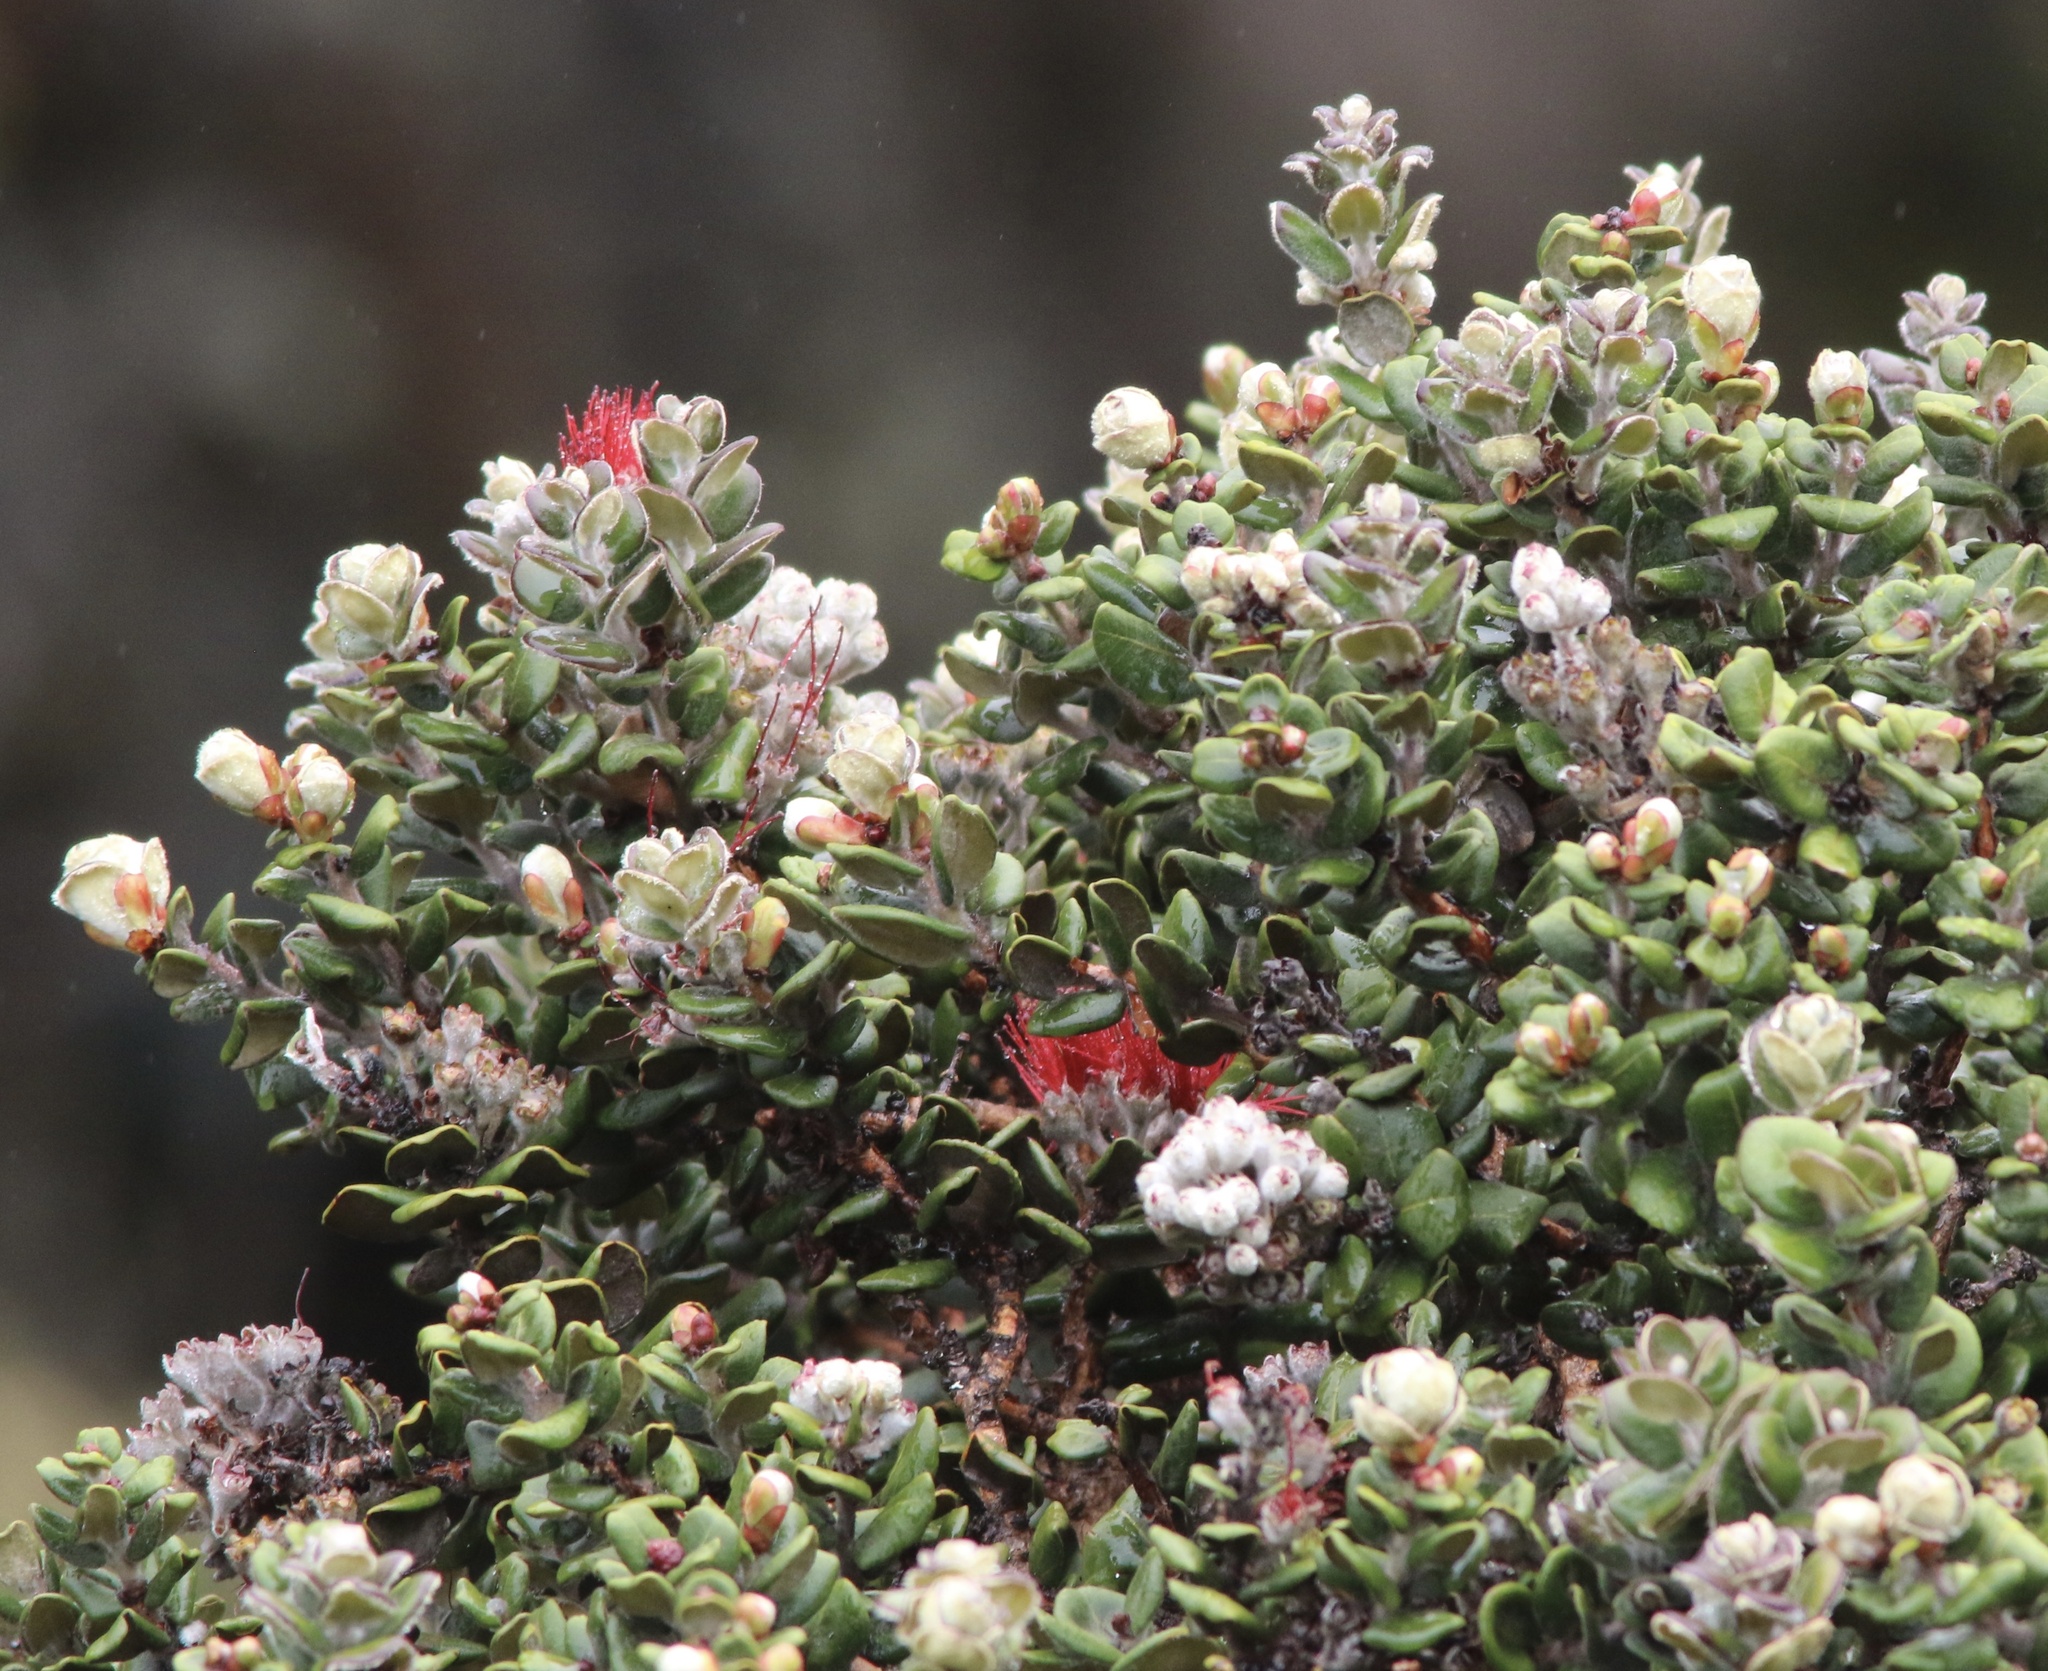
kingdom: Plantae
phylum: Tracheophyta
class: Magnoliopsida
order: Myrtales
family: Myrtaceae
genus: Metrosideros
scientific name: Metrosideros polymorpha
